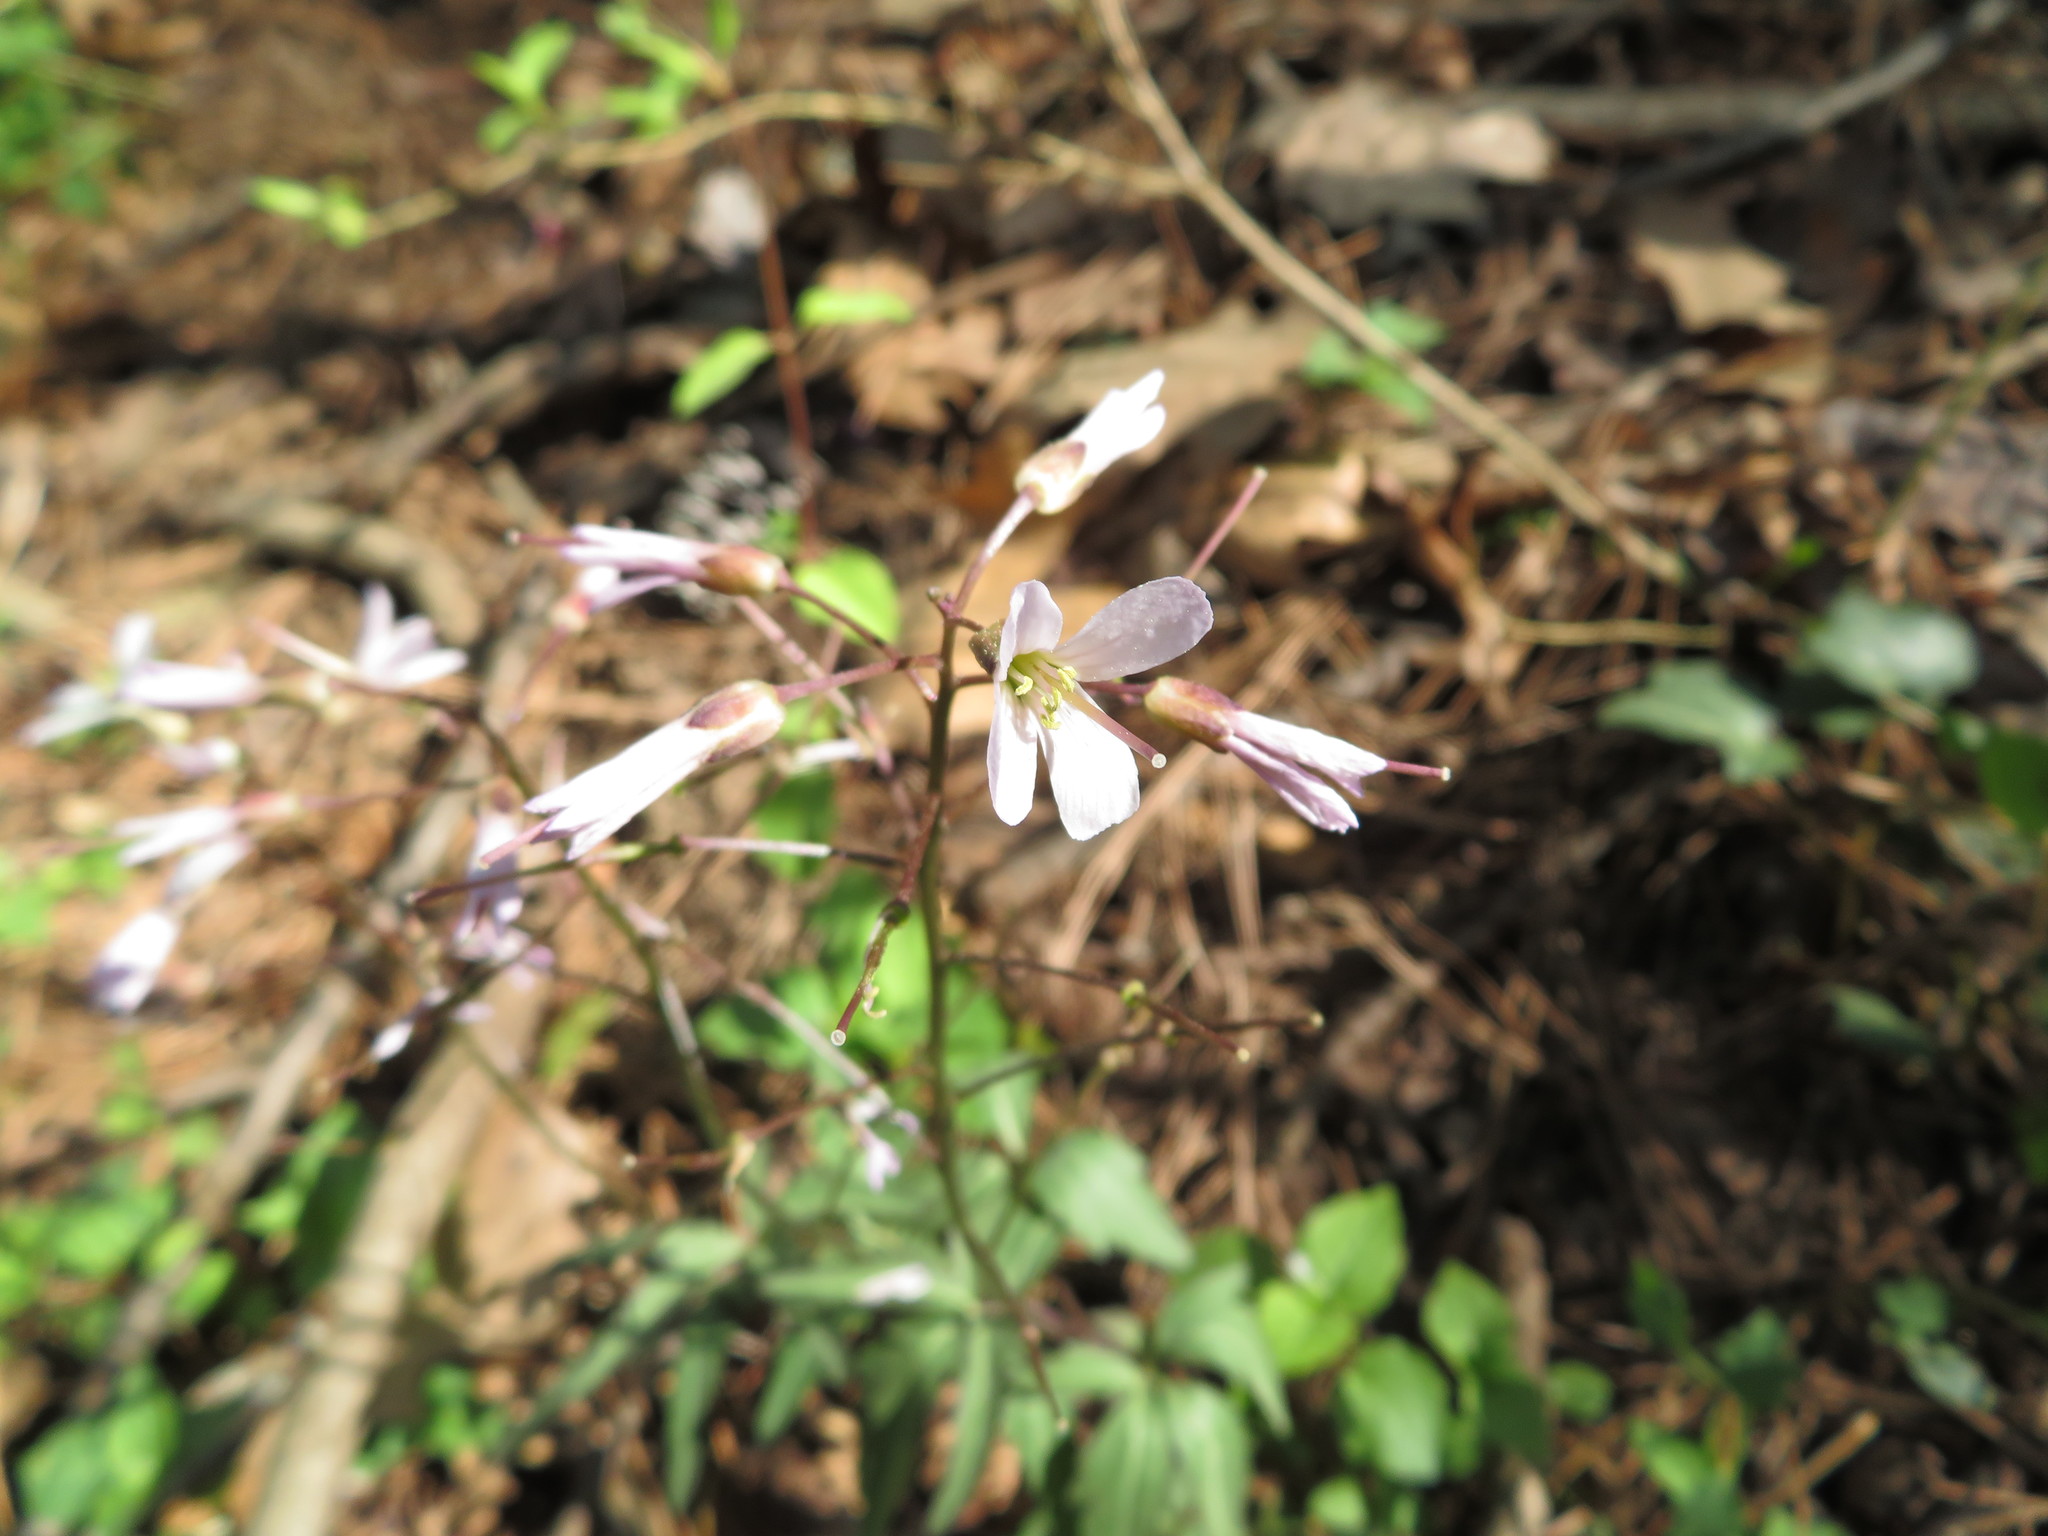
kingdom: Plantae
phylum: Tracheophyta
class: Magnoliopsida
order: Brassicales
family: Brassicaceae
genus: Cardamine
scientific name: Cardamine concatenata
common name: Cut-leaf toothcup
